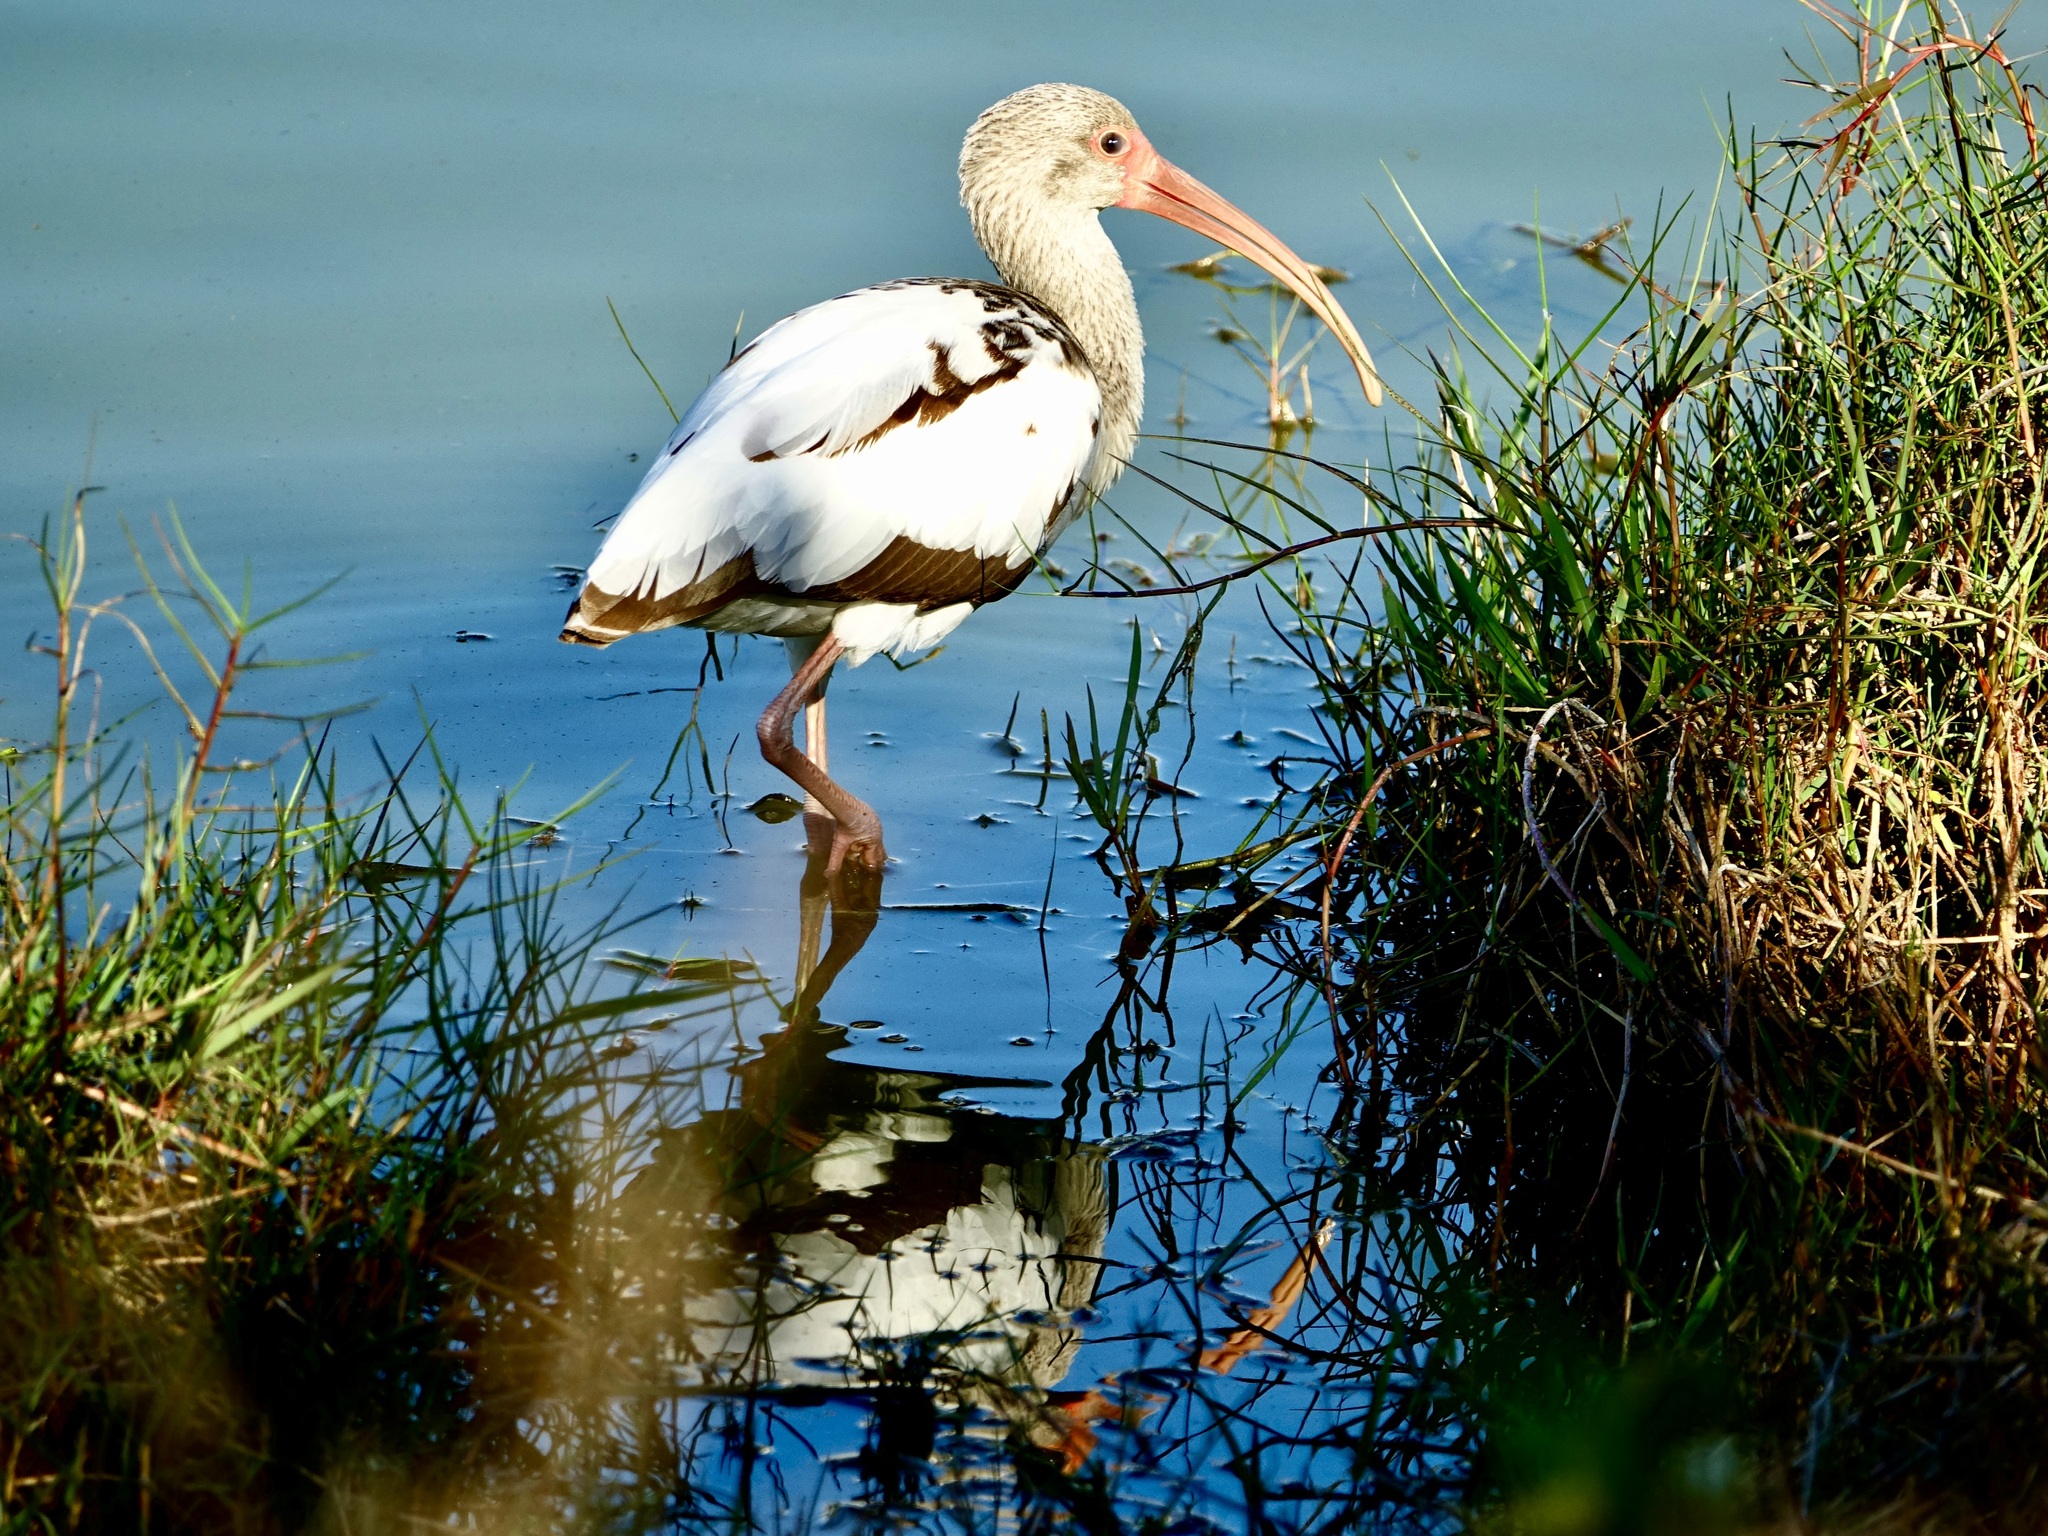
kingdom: Animalia
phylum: Chordata
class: Aves
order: Pelecaniformes
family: Threskiornithidae
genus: Eudocimus
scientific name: Eudocimus albus
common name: White ibis
